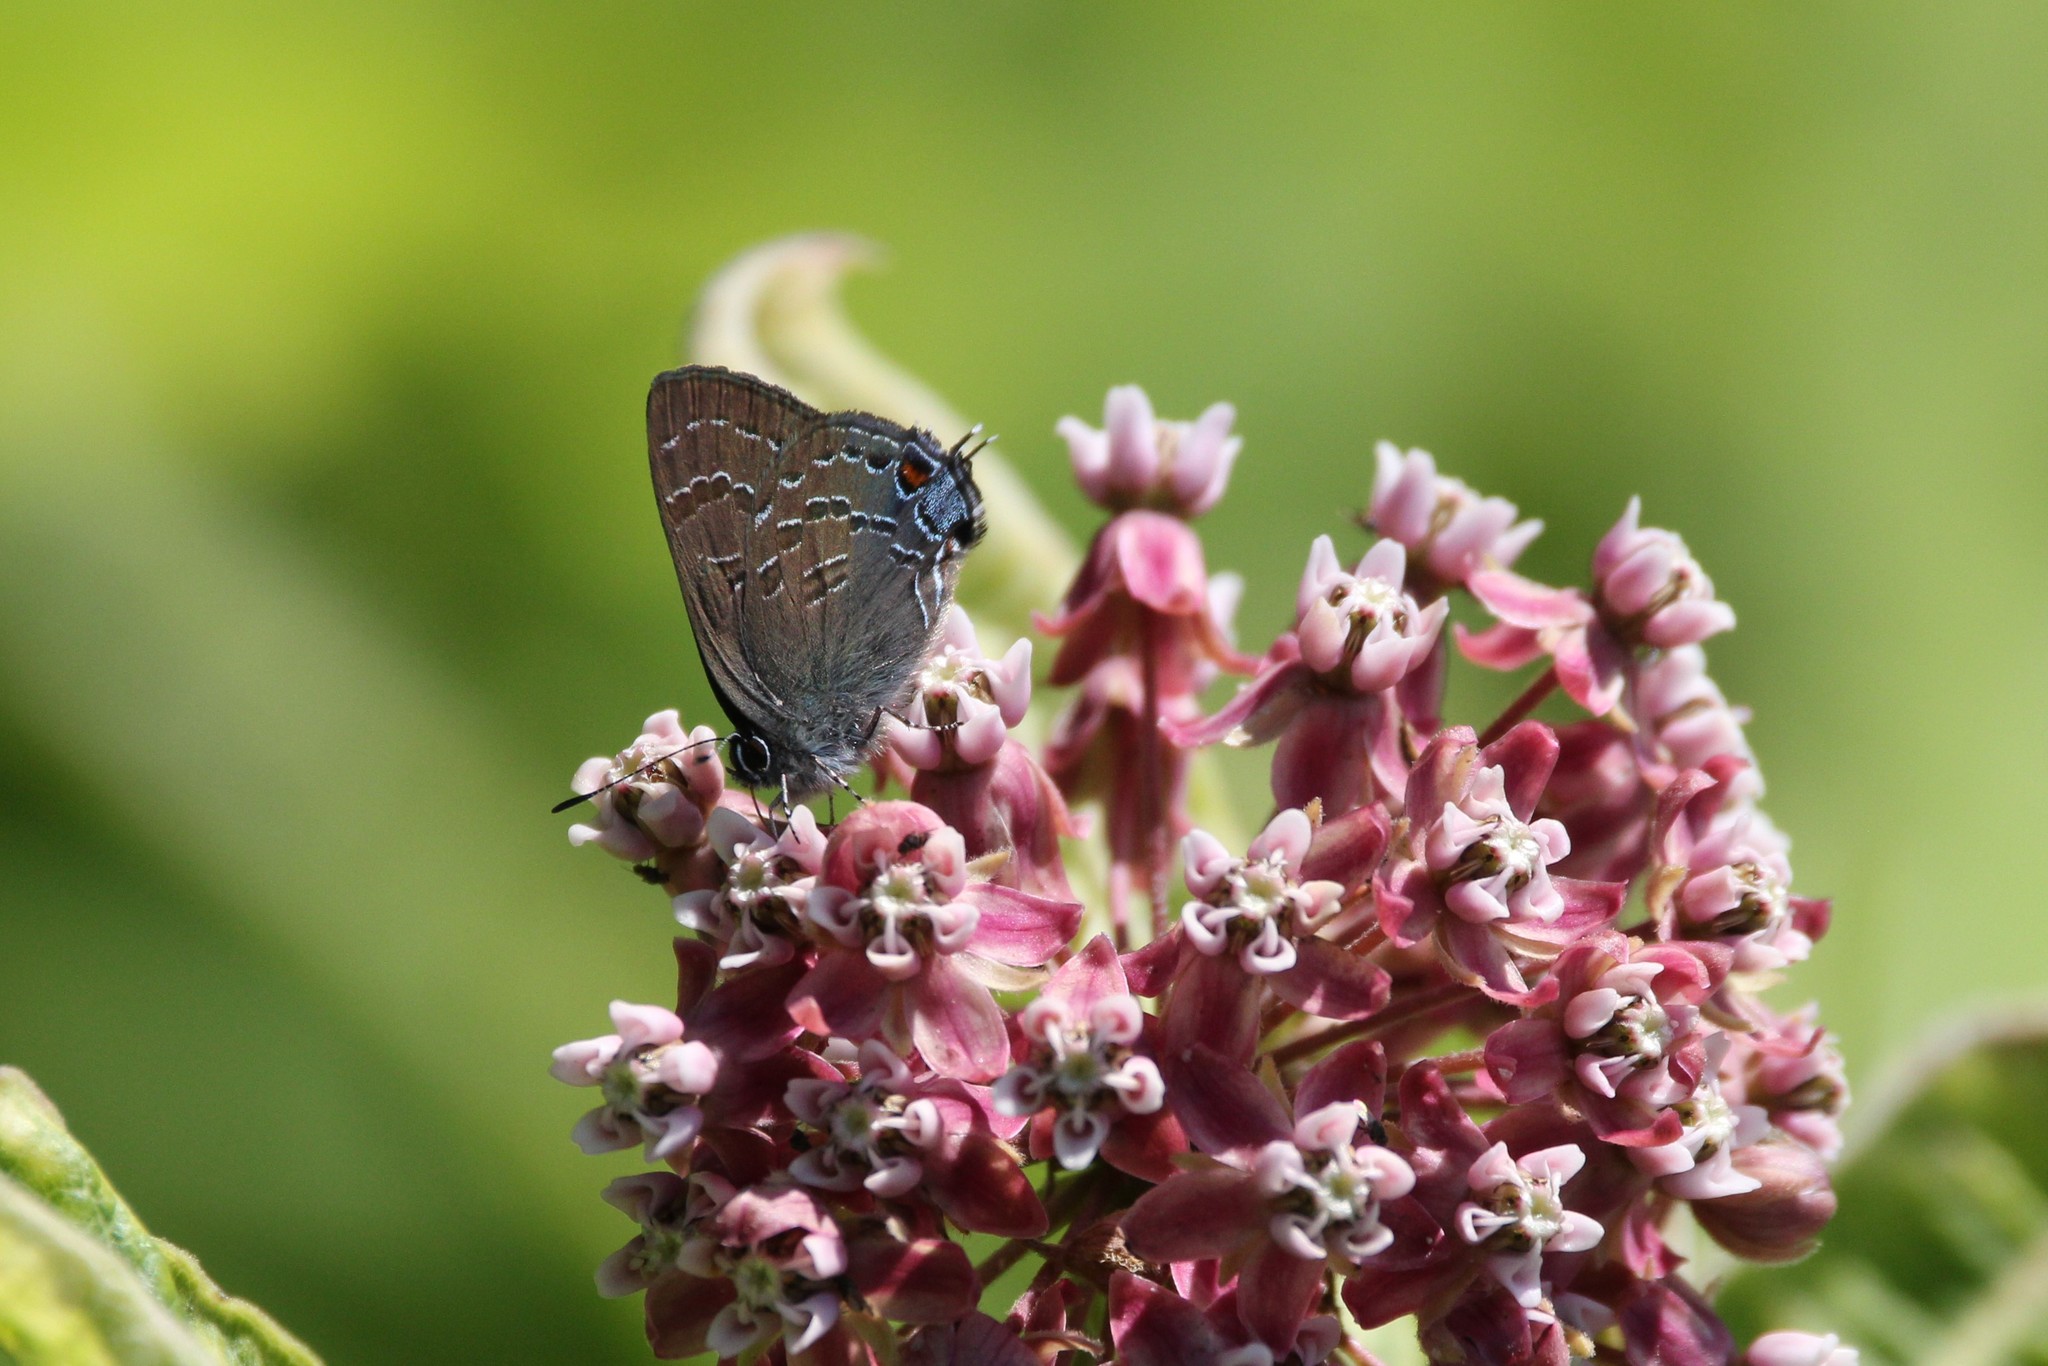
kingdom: Animalia
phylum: Arthropoda
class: Insecta
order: Lepidoptera
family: Lycaenidae
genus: Satyrium
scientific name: Satyrium calanus
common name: Banded hairstreak
